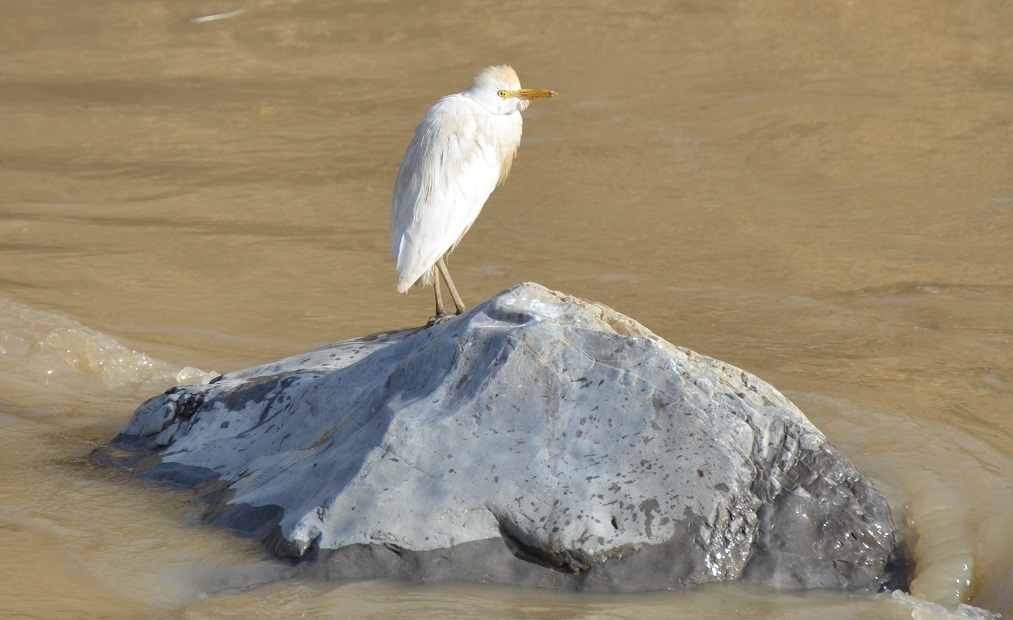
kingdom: Animalia
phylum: Chordata
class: Aves
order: Pelecaniformes
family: Ardeidae
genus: Bubulcus
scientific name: Bubulcus ibis
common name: Cattle egret
